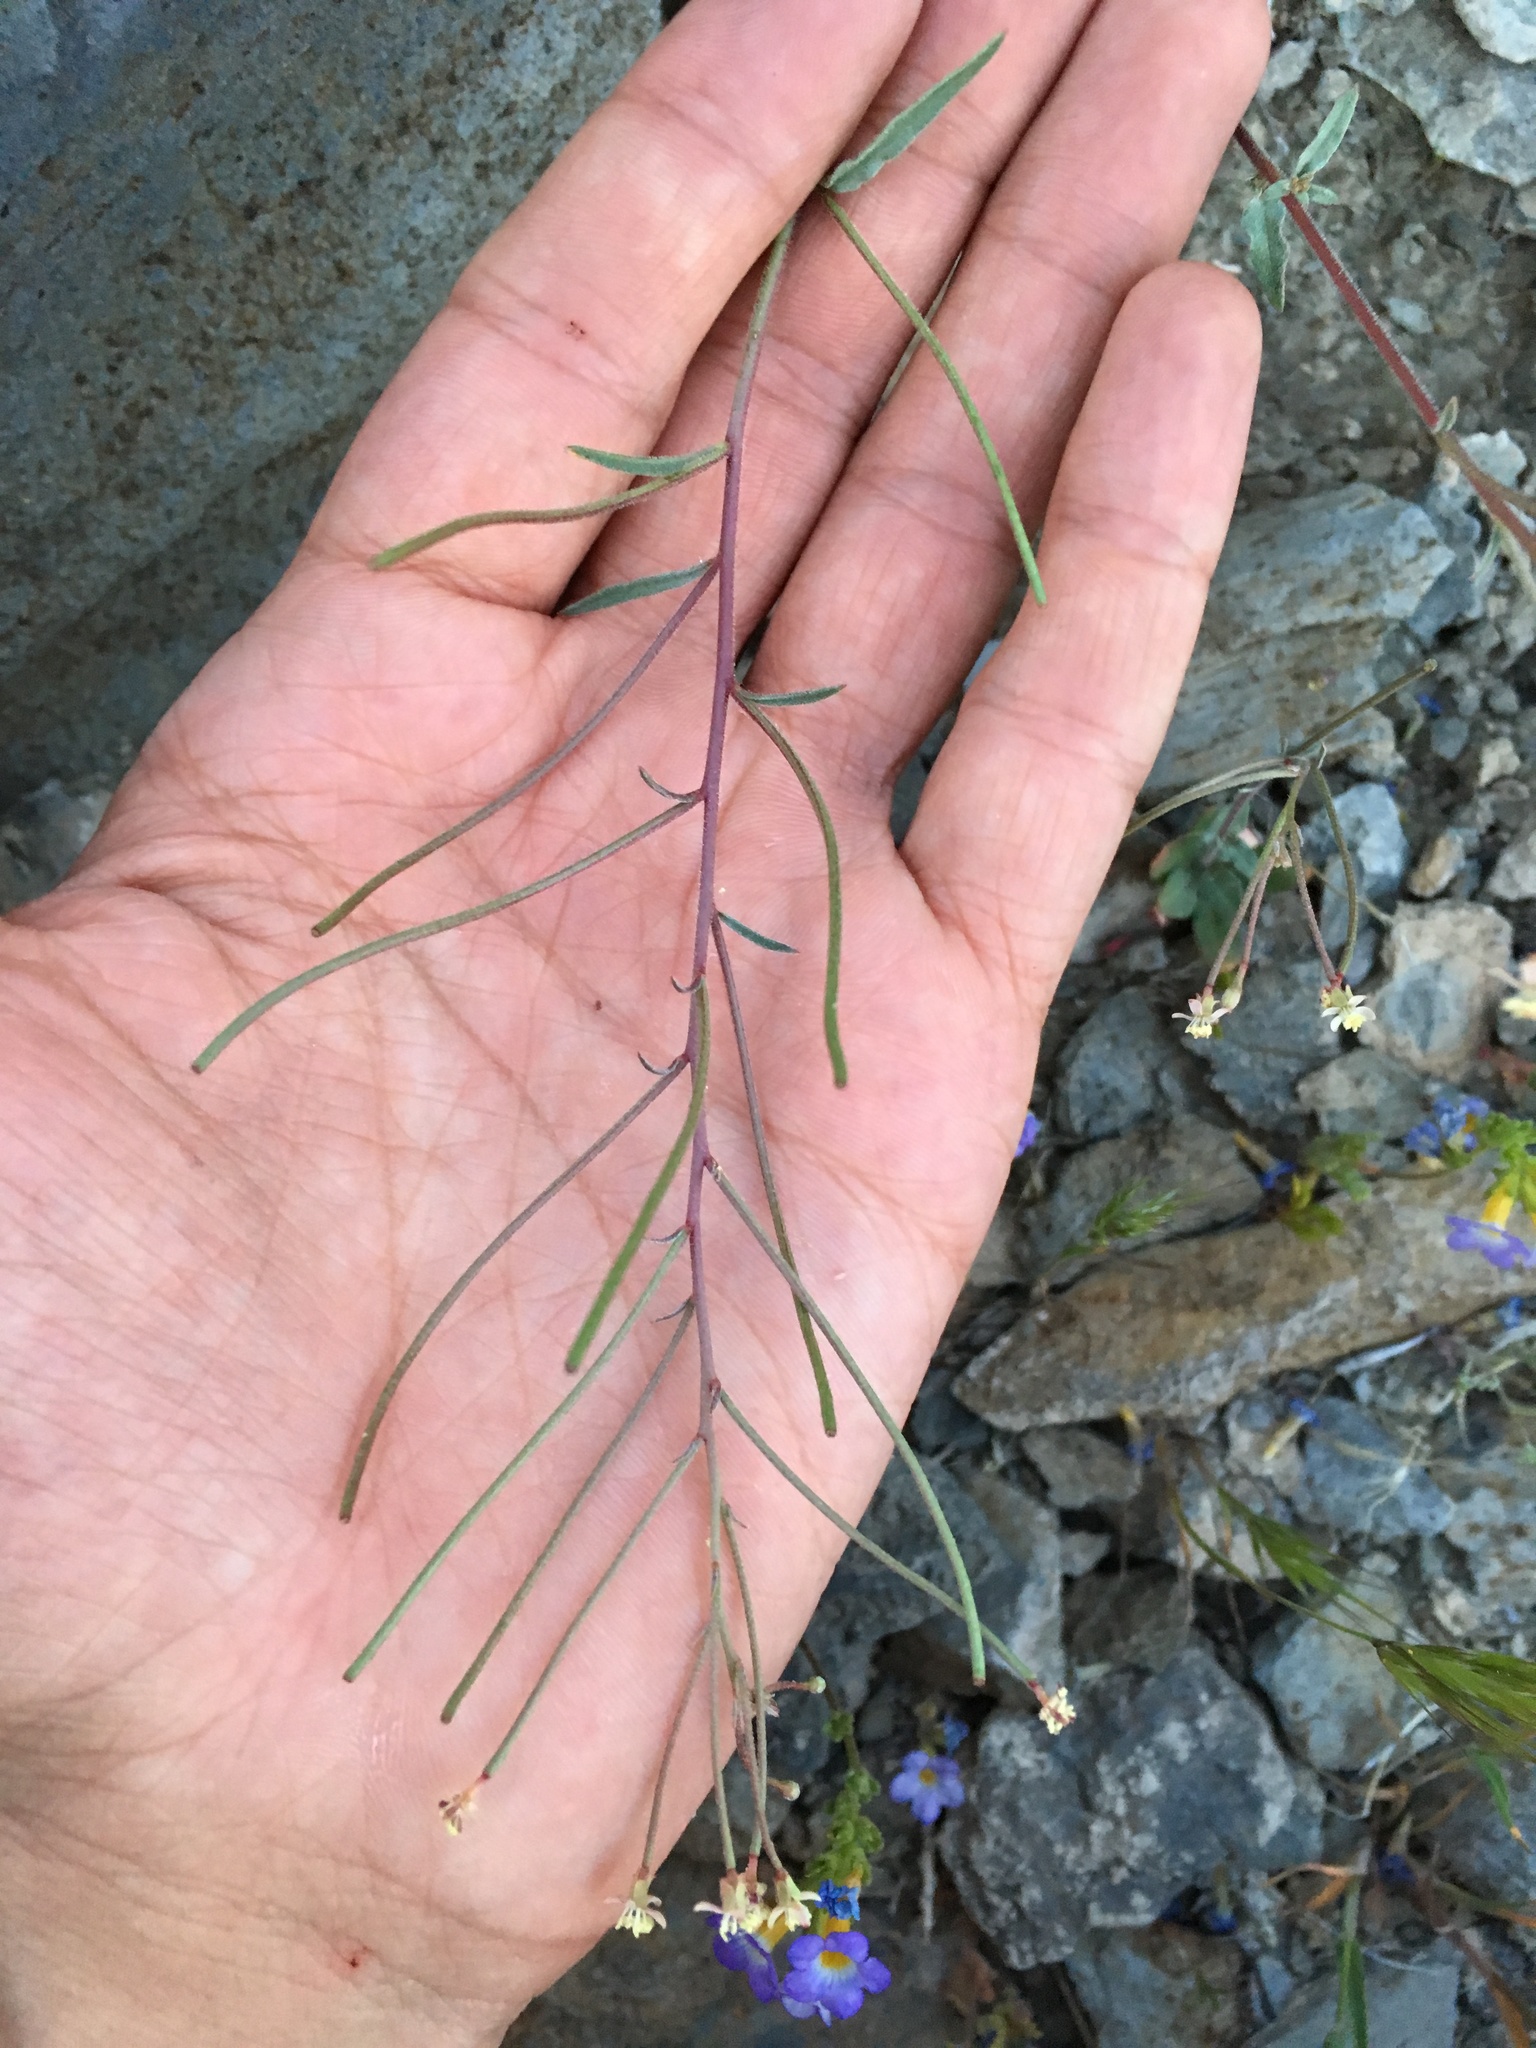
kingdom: Plantae
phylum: Tracheophyta
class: Magnoliopsida
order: Myrtales
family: Onagraceae
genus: Eremothera
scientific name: Eremothera chamaenerioides
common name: Longcapsule suncup
